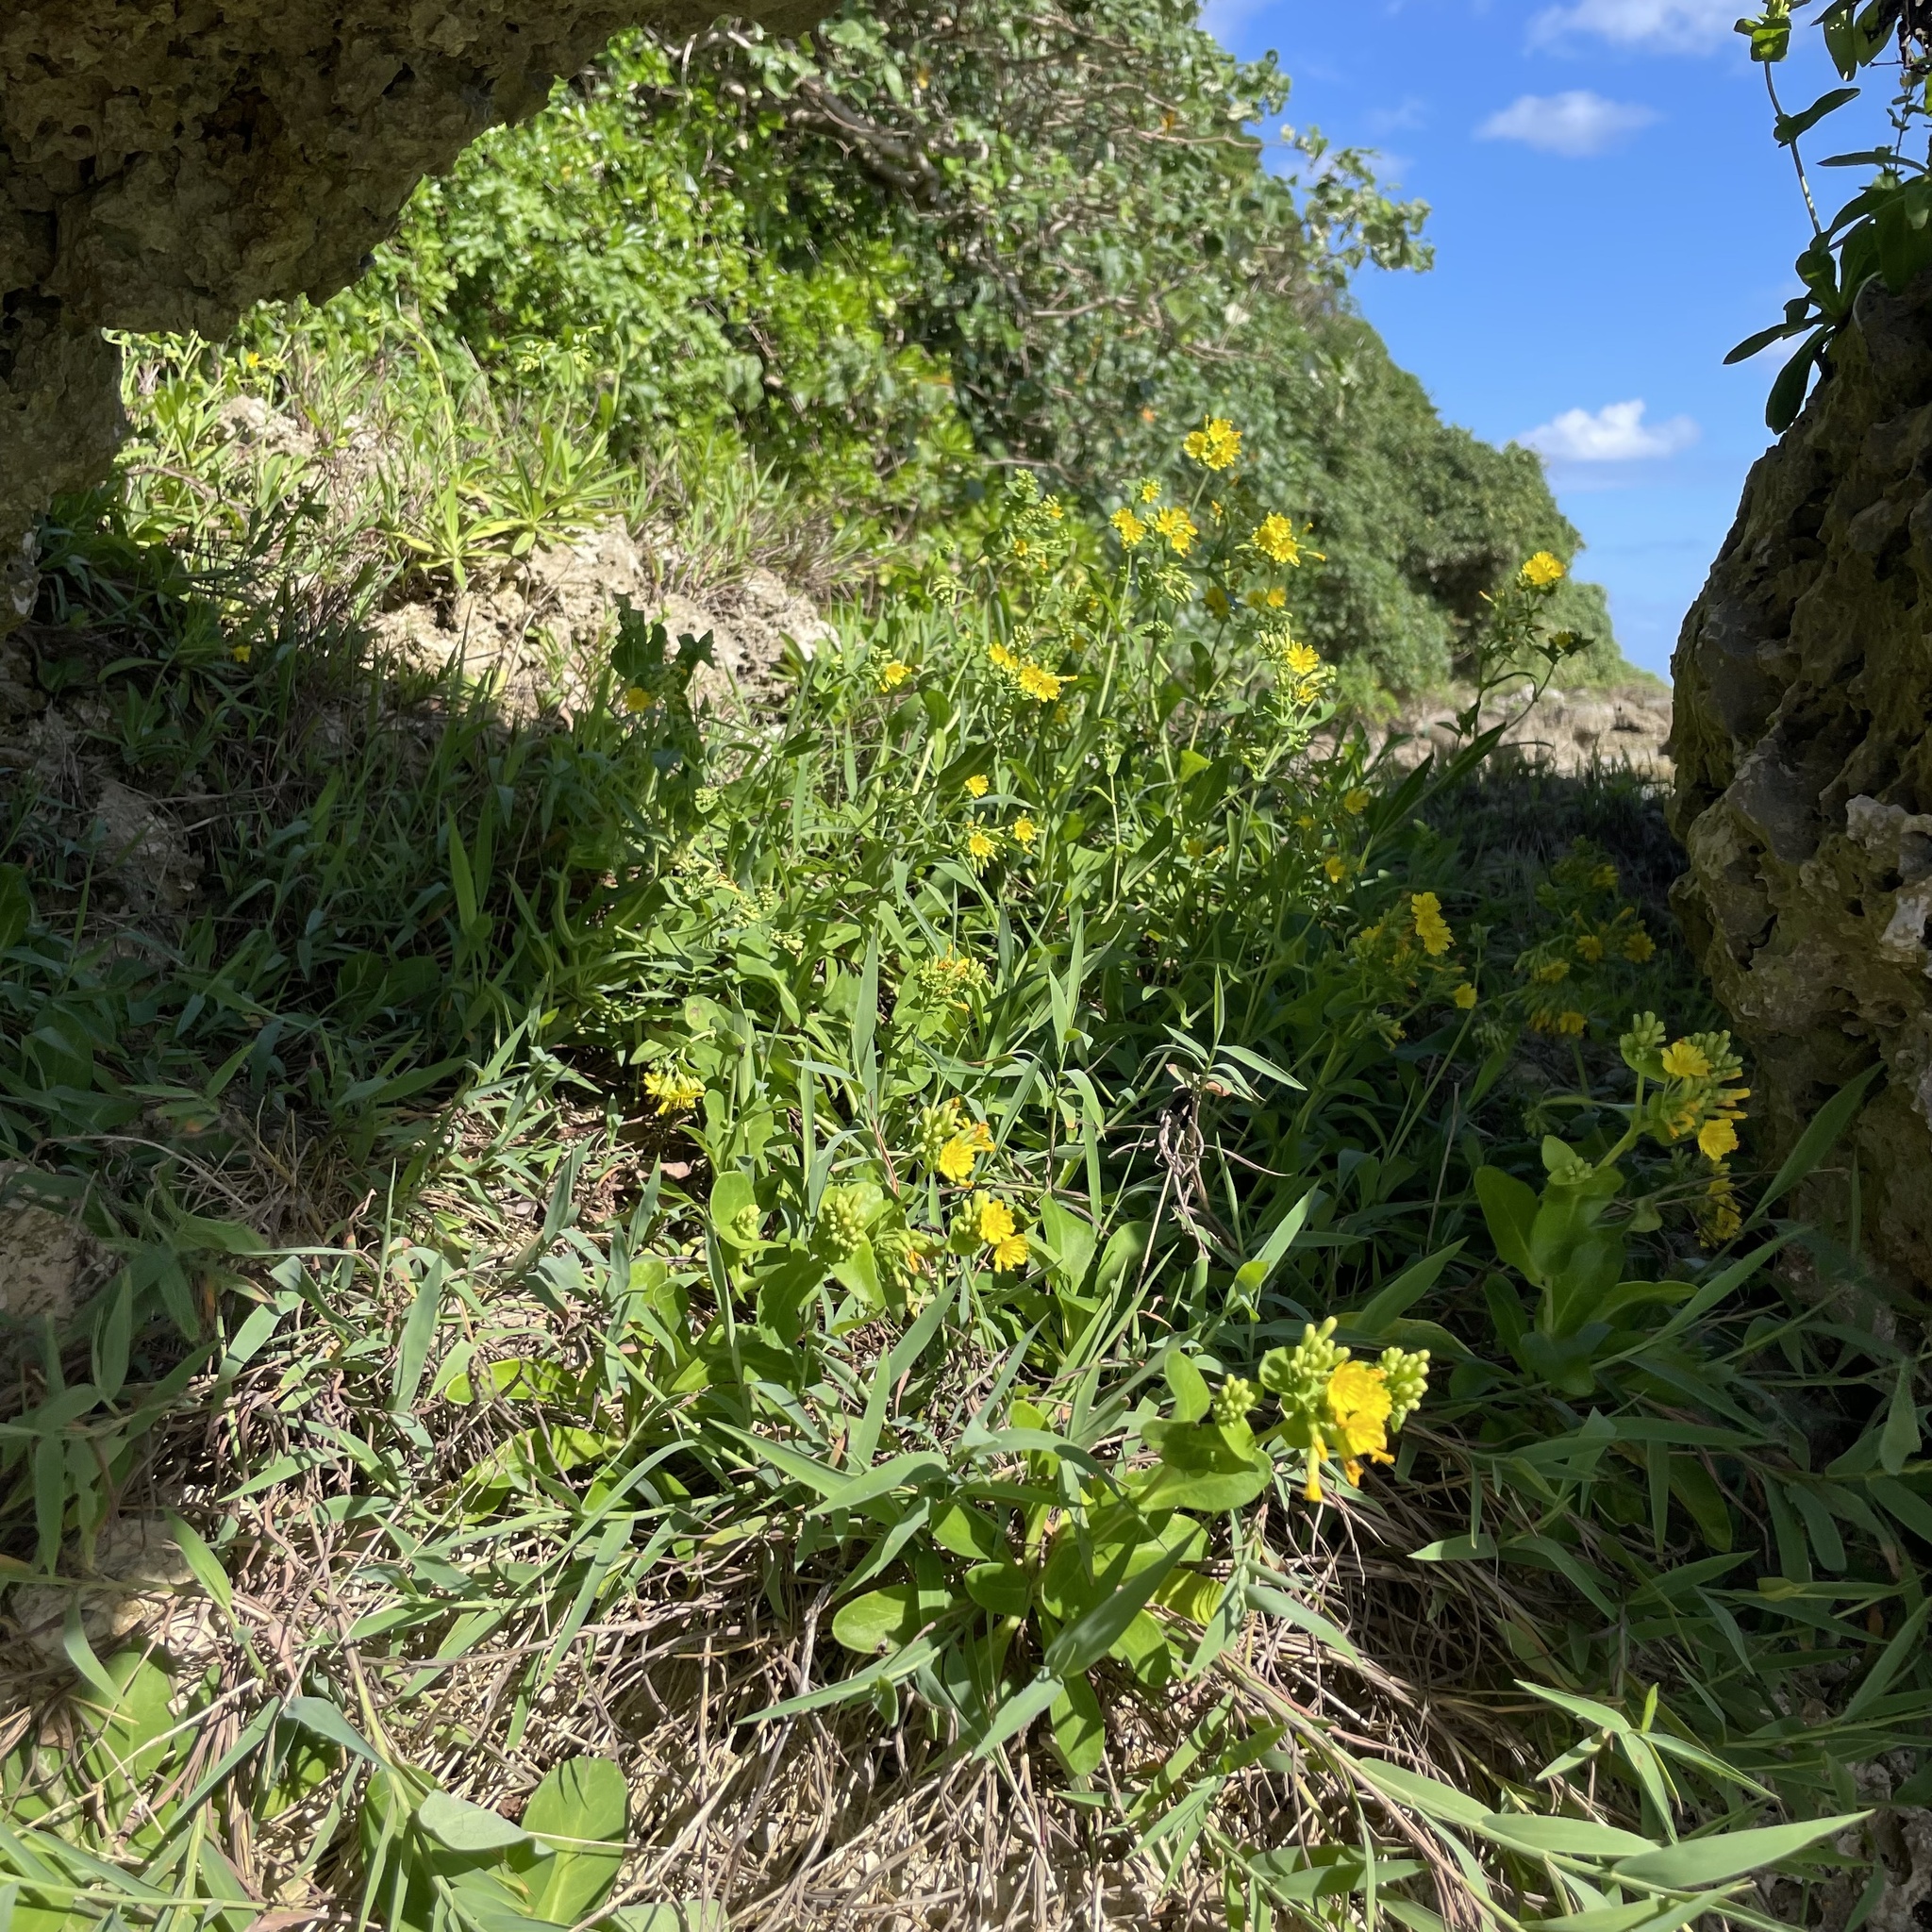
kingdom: Plantae
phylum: Tracheophyta
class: Magnoliopsida
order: Asterales
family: Asteraceae
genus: Crepidiastrum
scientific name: Crepidiastrum lanceolatum
